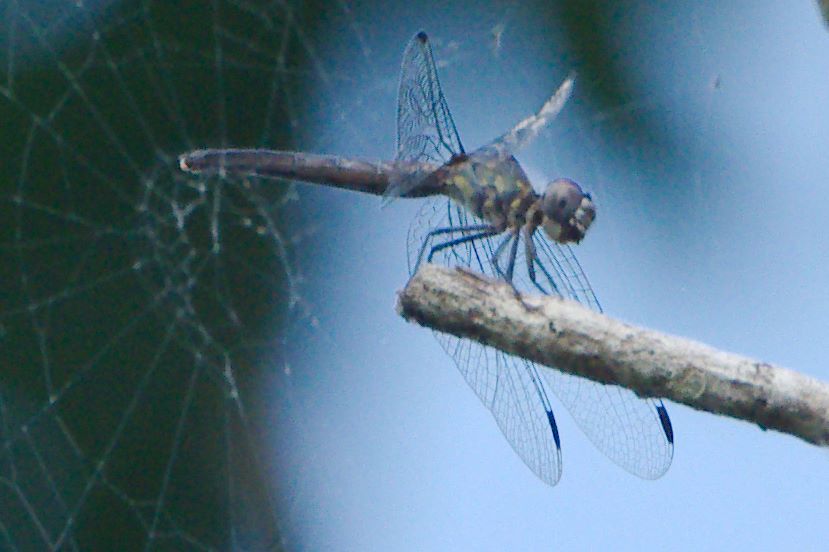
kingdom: Animalia
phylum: Arthropoda
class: Insecta
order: Odonata
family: Libellulidae
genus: Micrathyria
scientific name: Micrathyria aequalis
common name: Spot-tailed dasher
